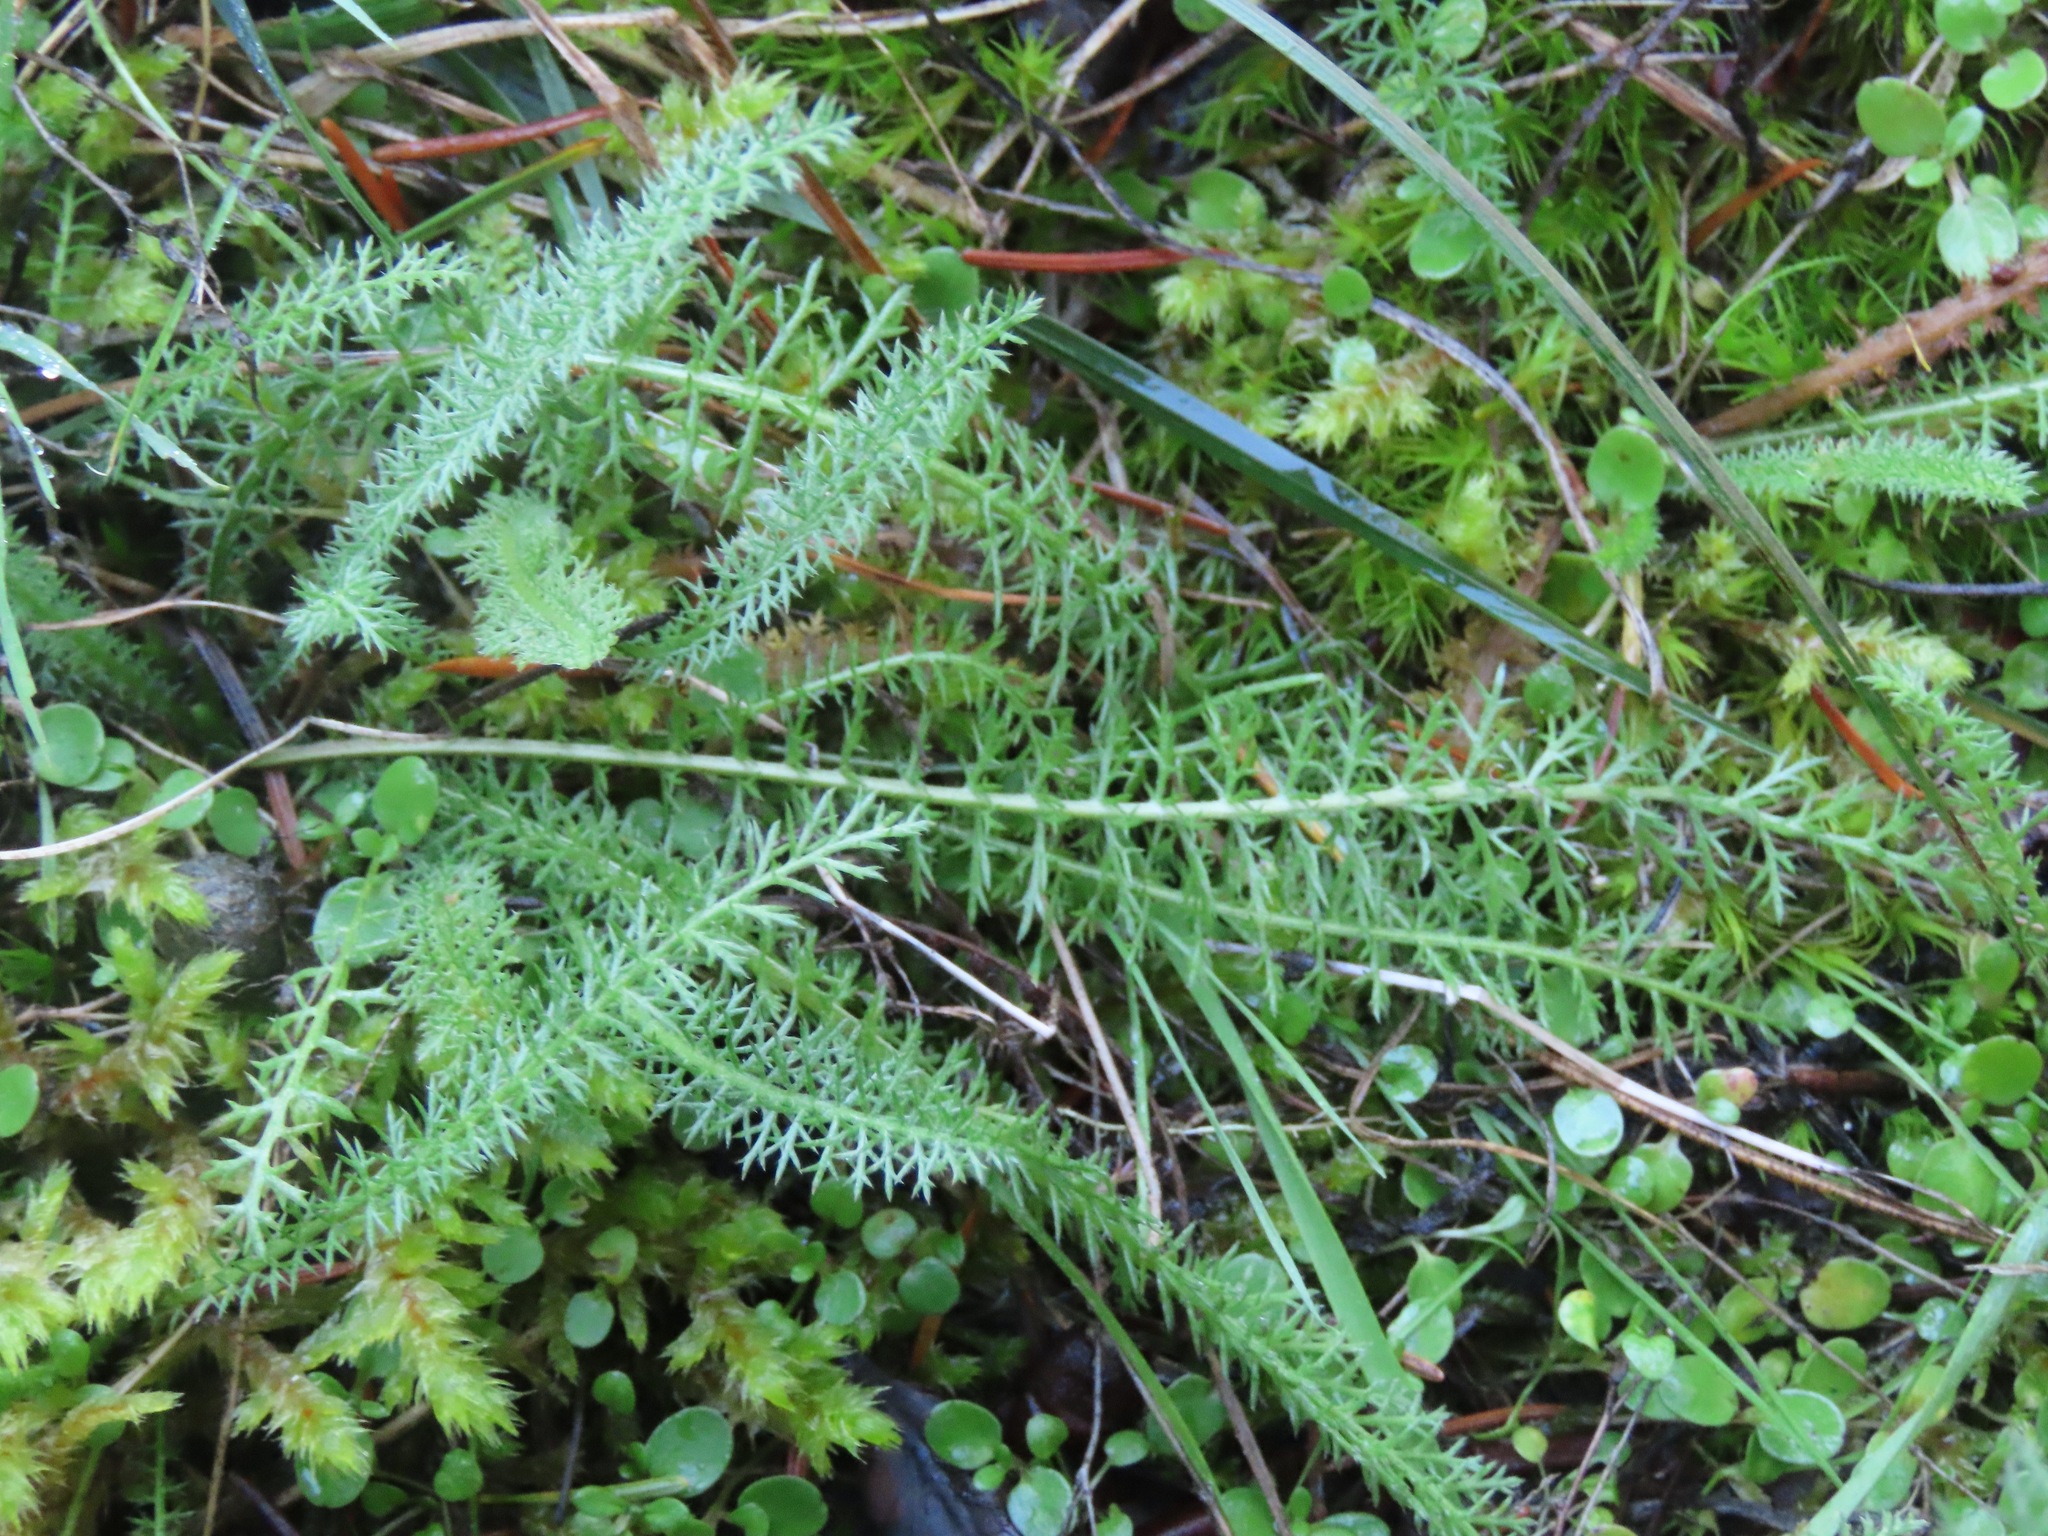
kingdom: Plantae
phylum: Tracheophyta
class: Magnoliopsida
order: Asterales
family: Asteraceae
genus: Achillea
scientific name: Achillea millefolium
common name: Yarrow
